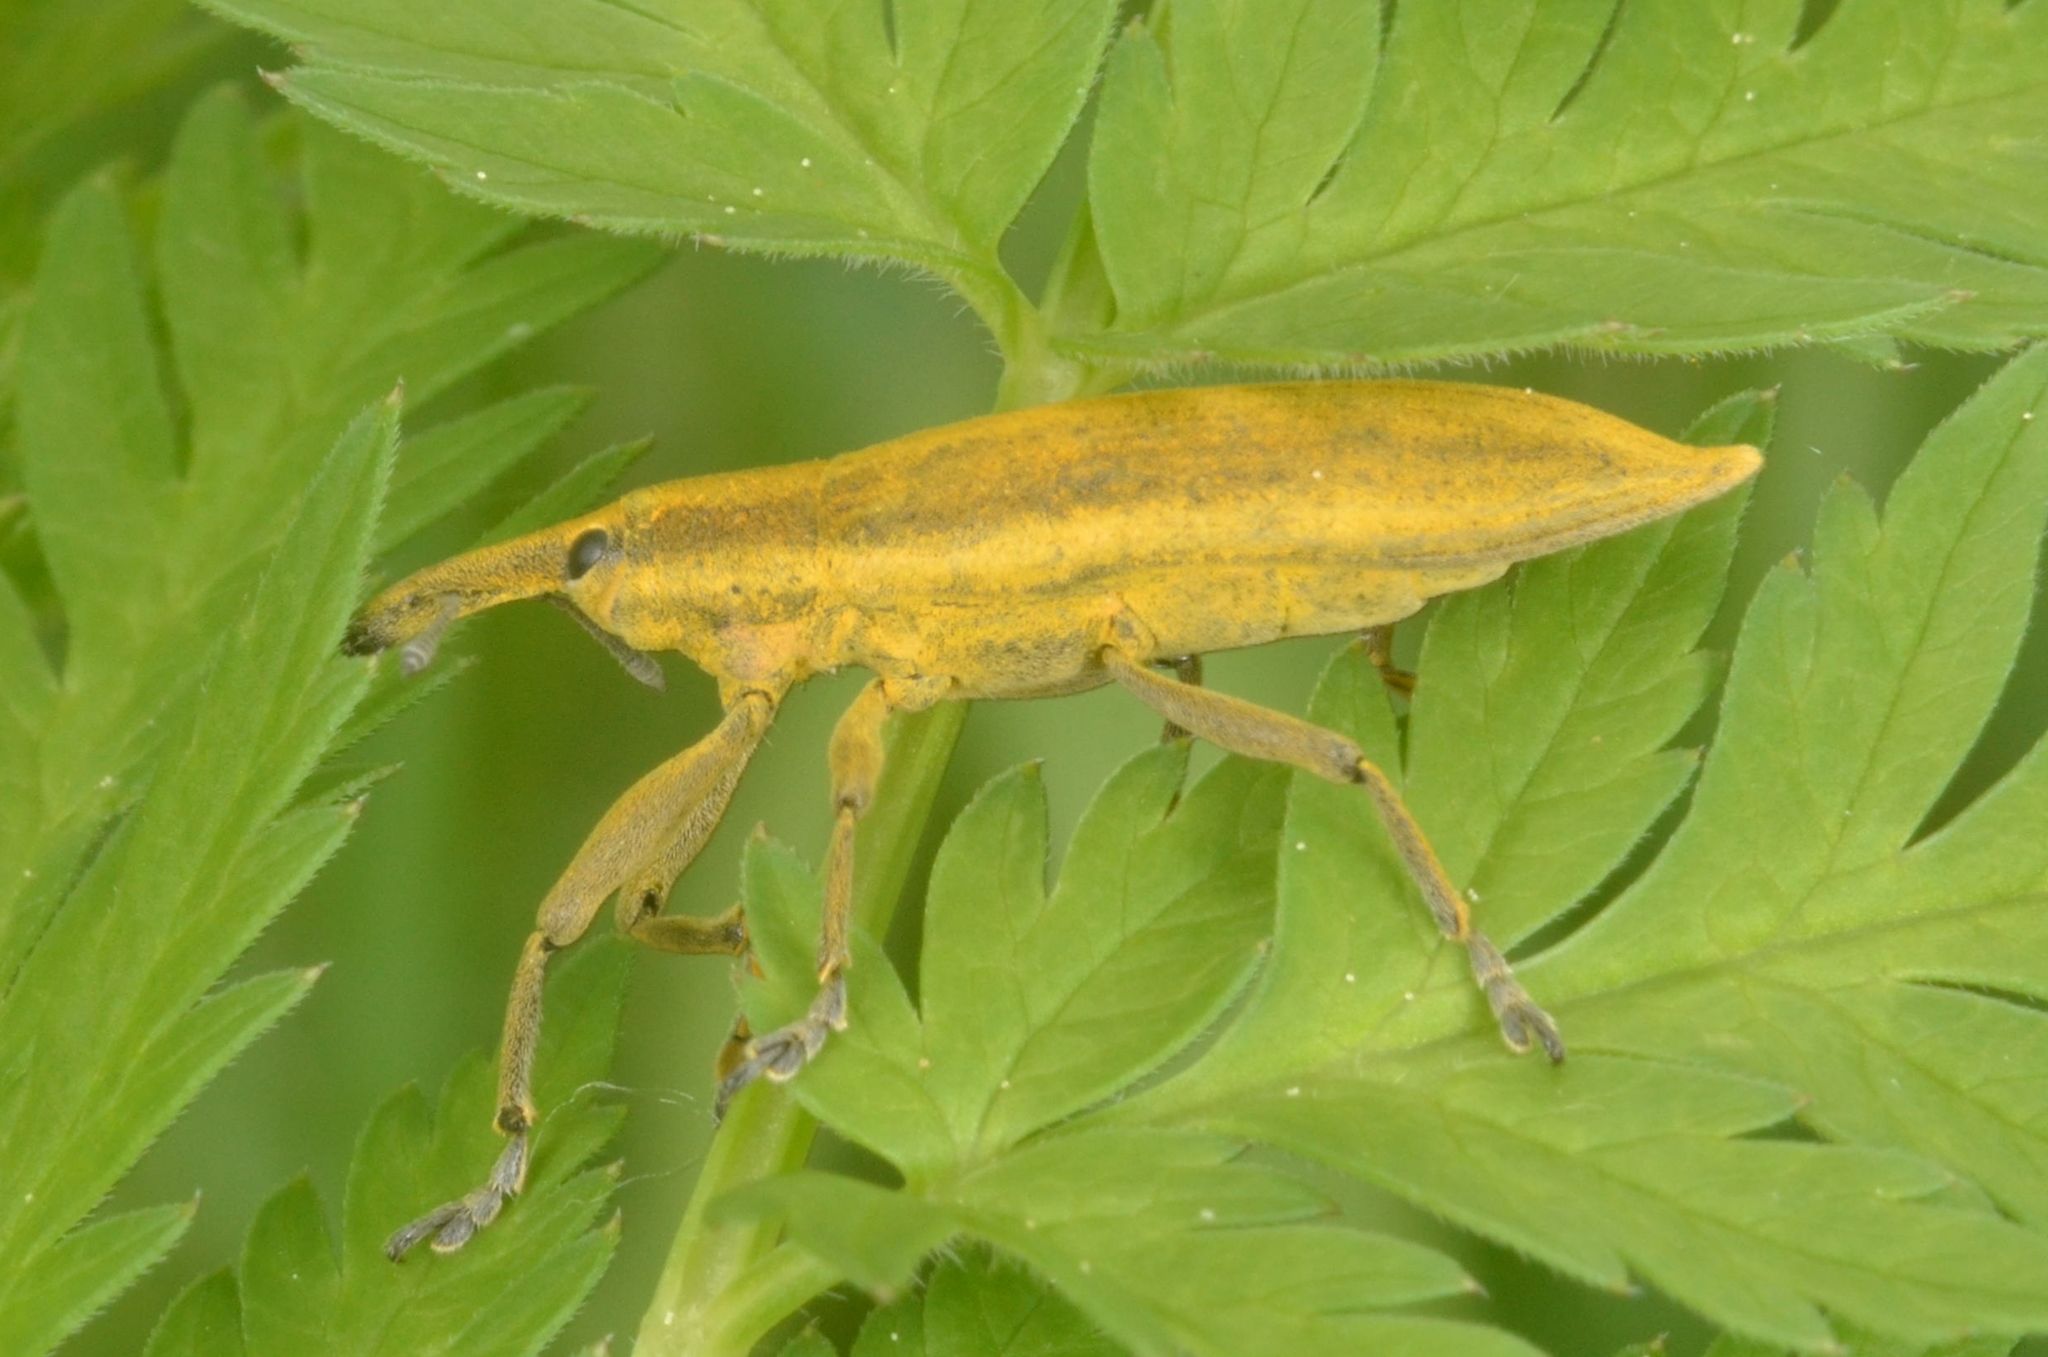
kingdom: Animalia
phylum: Arthropoda
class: Insecta
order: Coleoptera
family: Curculionidae
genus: Lixus
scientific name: Lixus iridis
